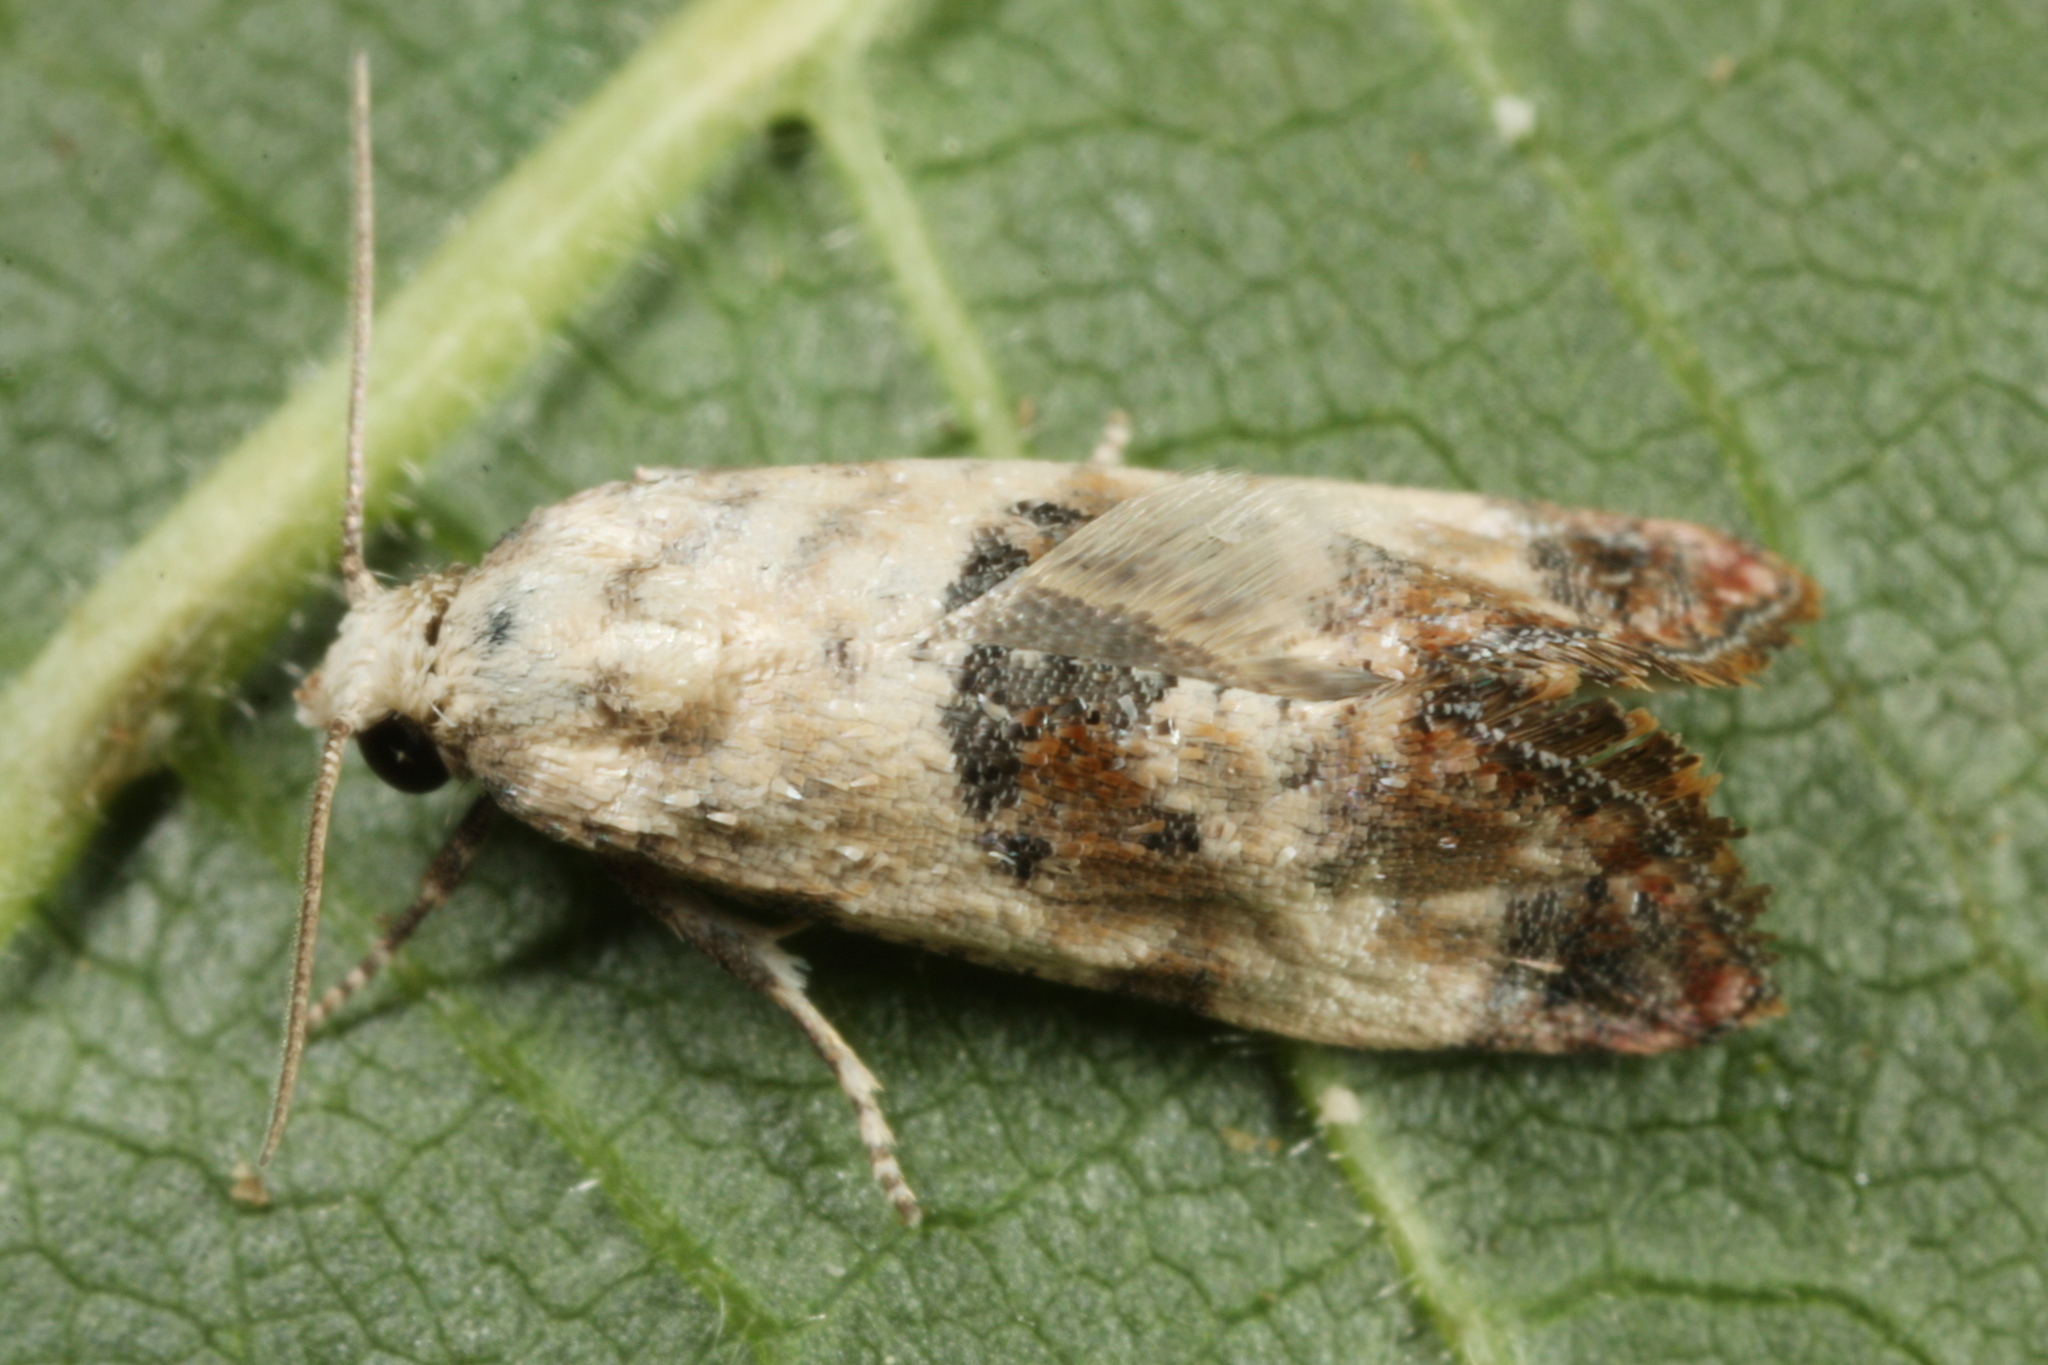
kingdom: Animalia
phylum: Arthropoda
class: Insecta
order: Lepidoptera
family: Tortricidae
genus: Cochylis
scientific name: Cochylis hybridella
